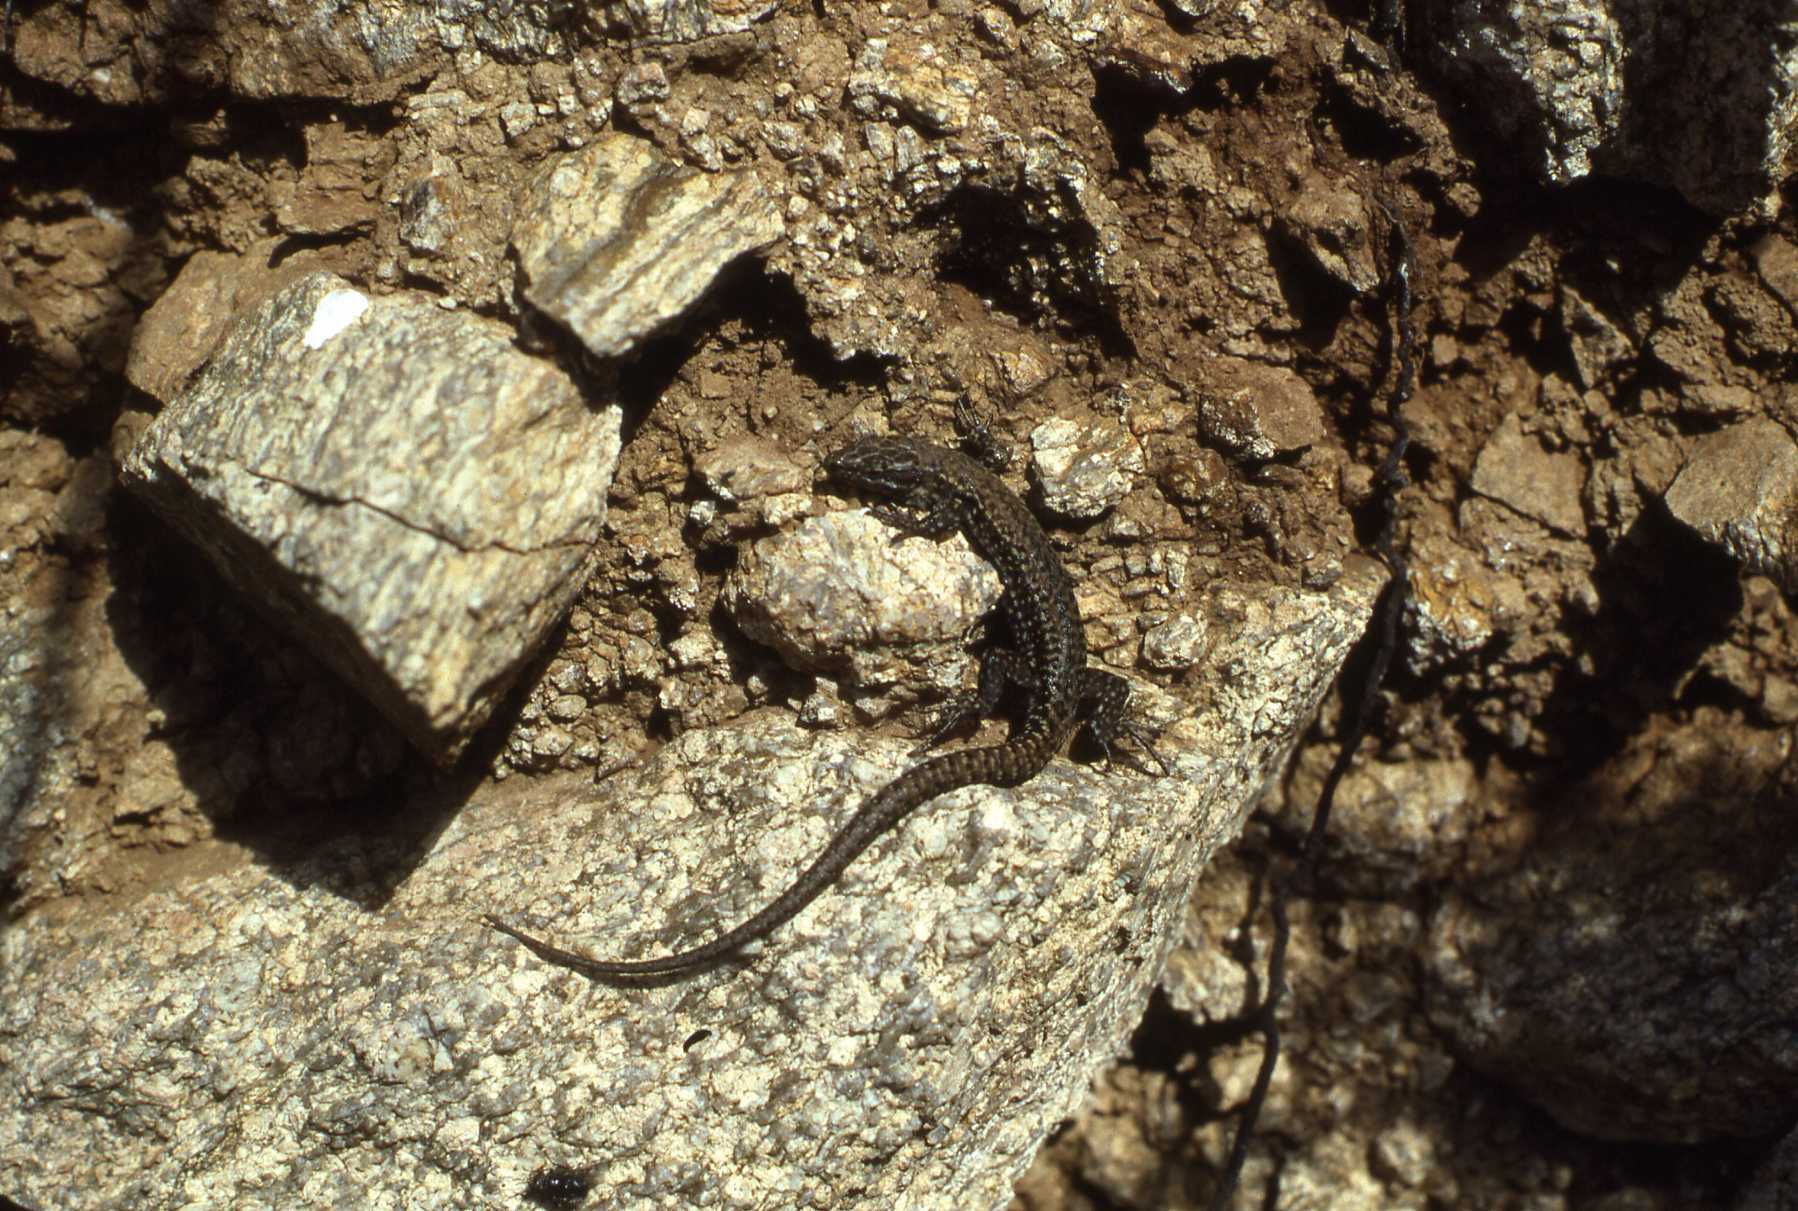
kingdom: Animalia
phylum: Chordata
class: Squamata
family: Lacertidae
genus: Podarcis
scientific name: Podarcis muralis
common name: Common wall lizard
